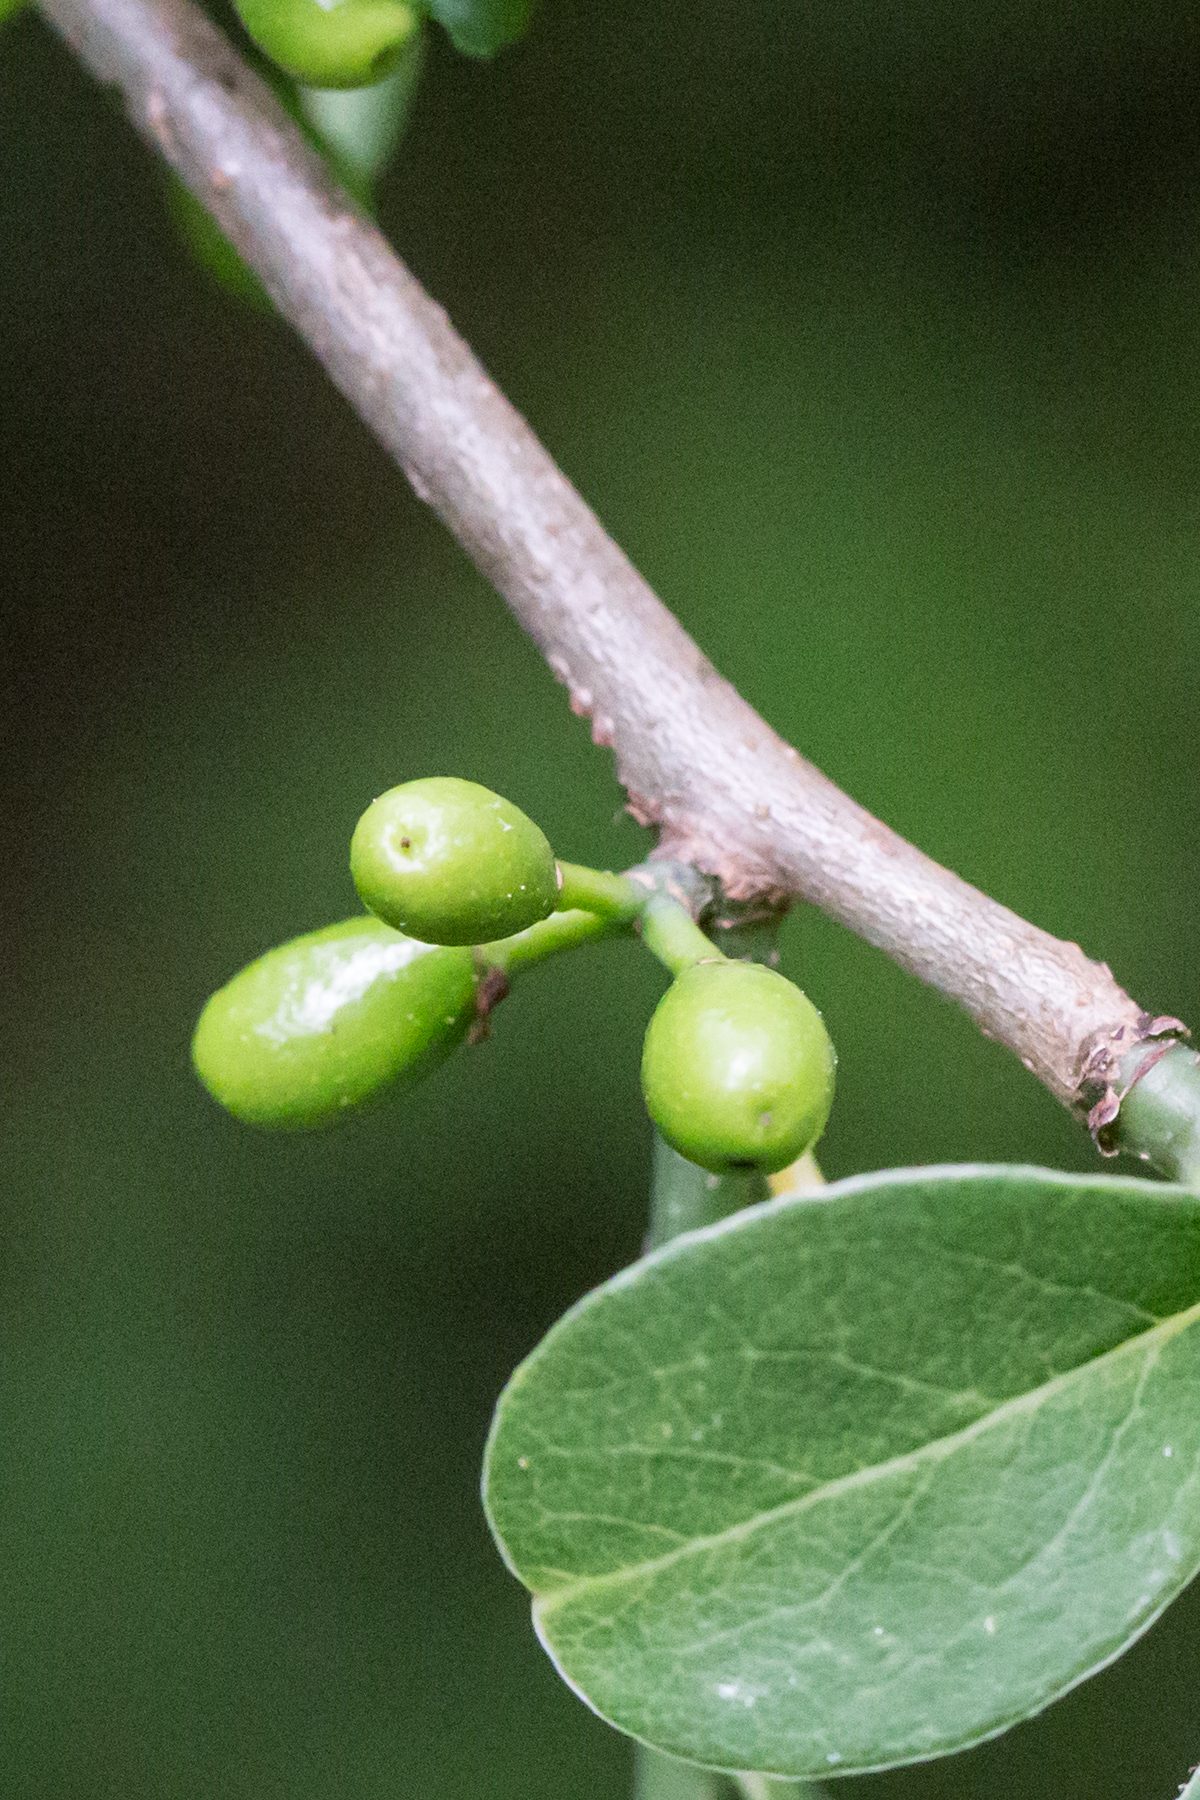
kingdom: Plantae
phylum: Tracheophyta
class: Magnoliopsida
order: Laurales
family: Lauraceae
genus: Lindera
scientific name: Lindera benzoin
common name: Spicebush
